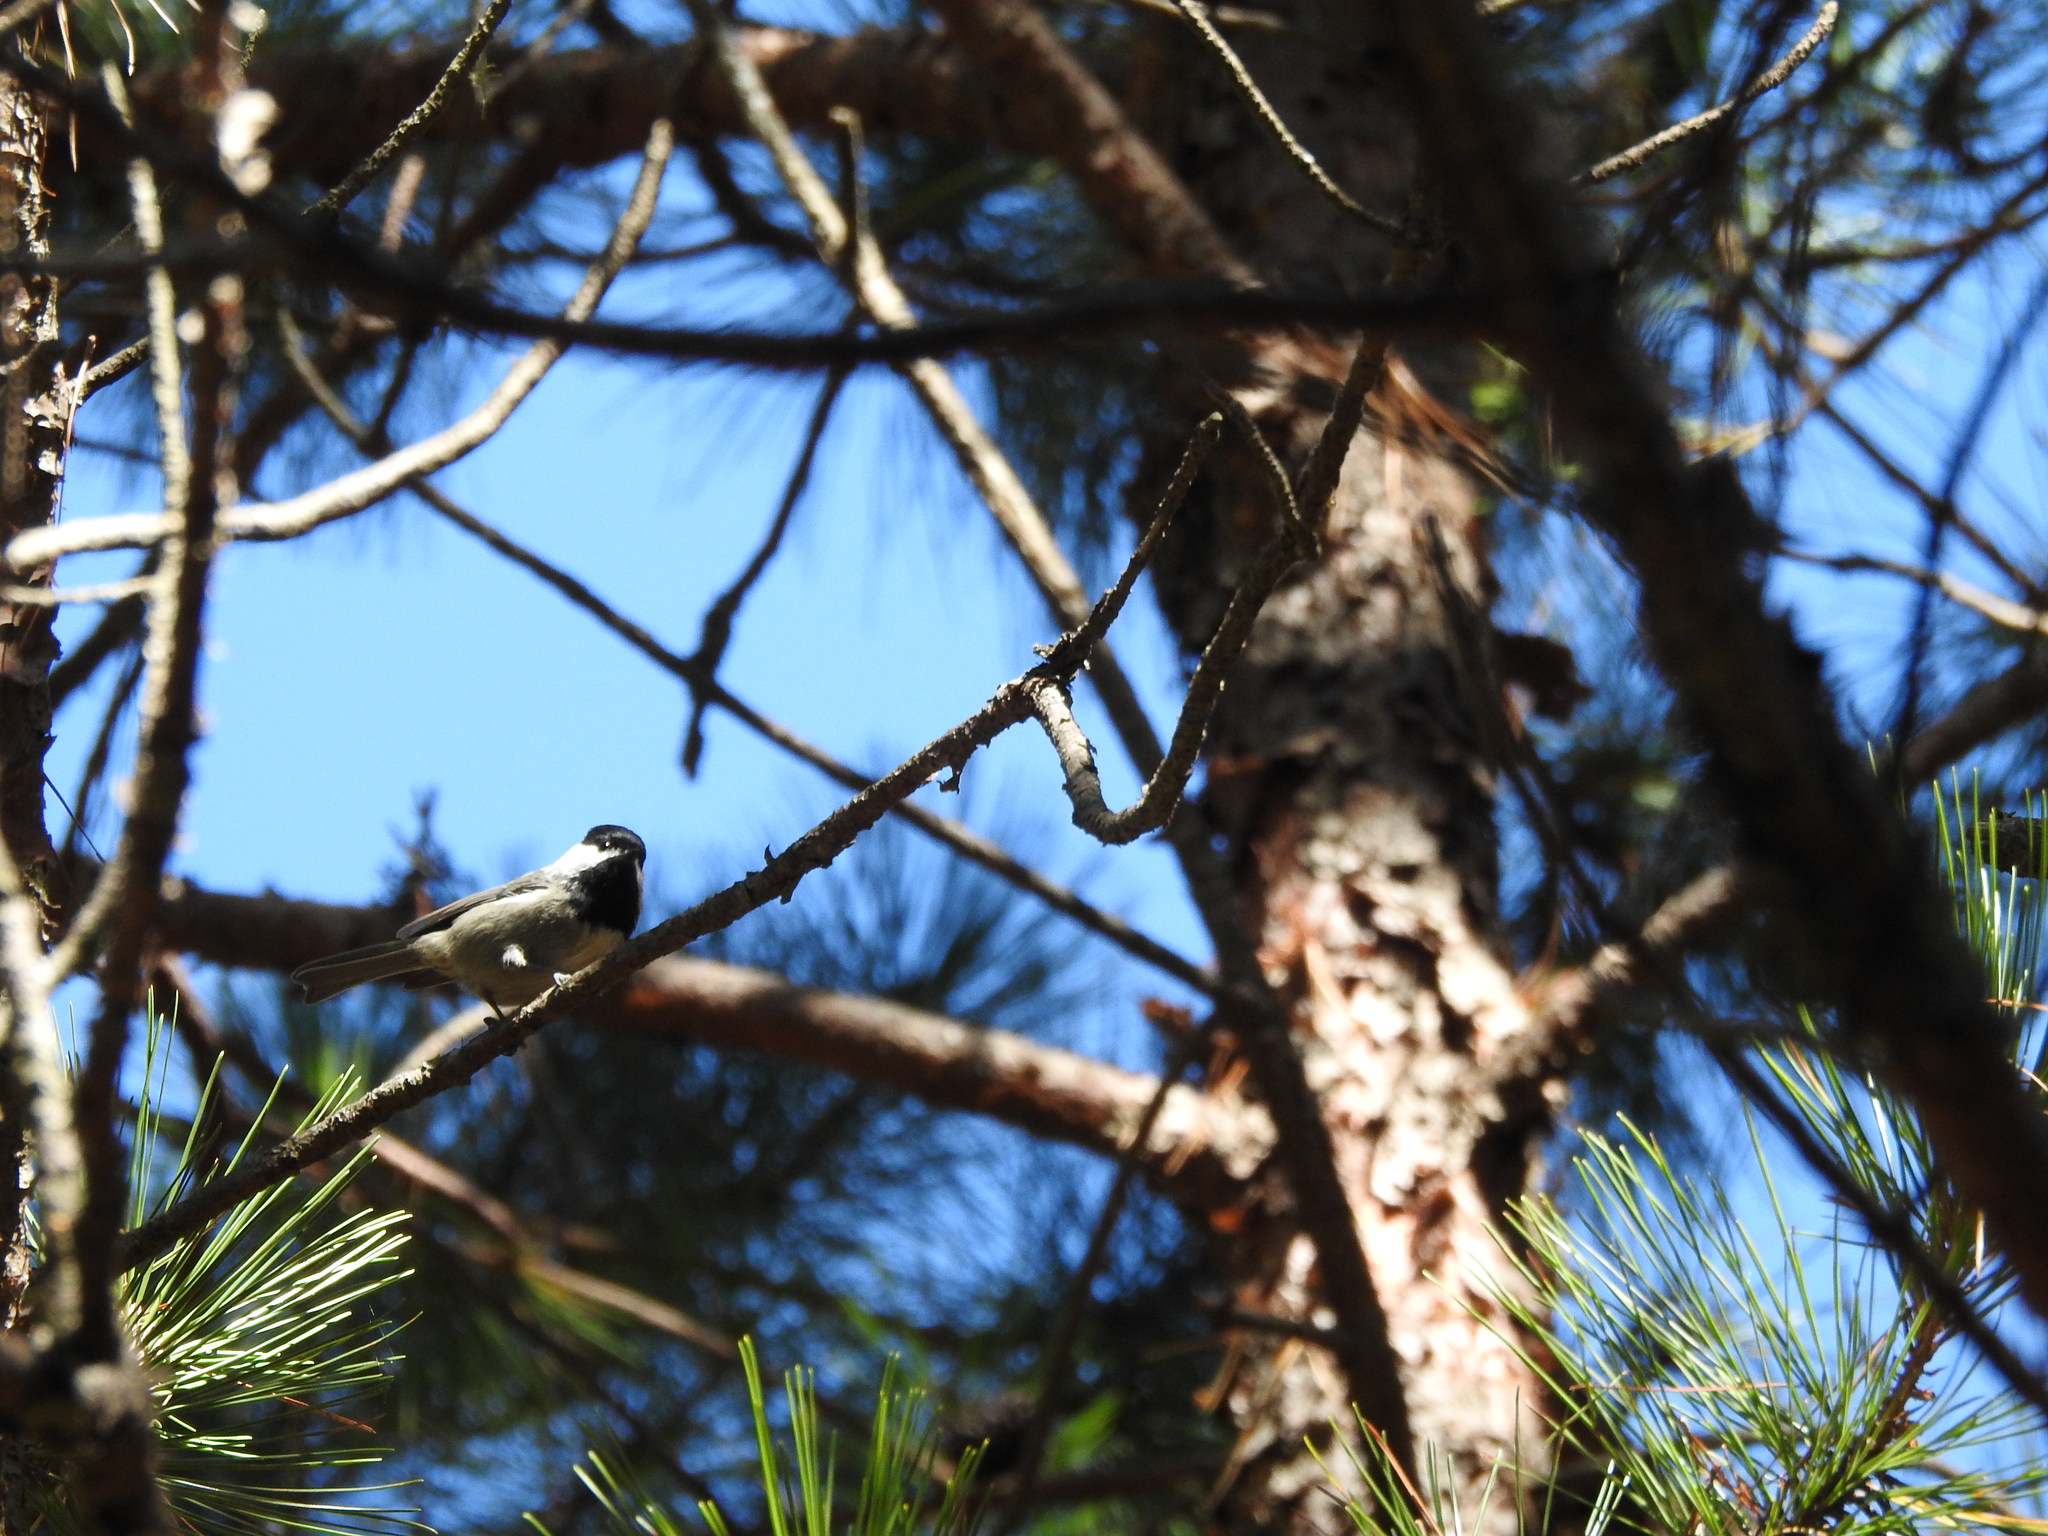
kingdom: Animalia
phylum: Chordata
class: Aves
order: Passeriformes
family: Paridae
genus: Poecile
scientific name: Poecile sclateri
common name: Mexican chickadee
